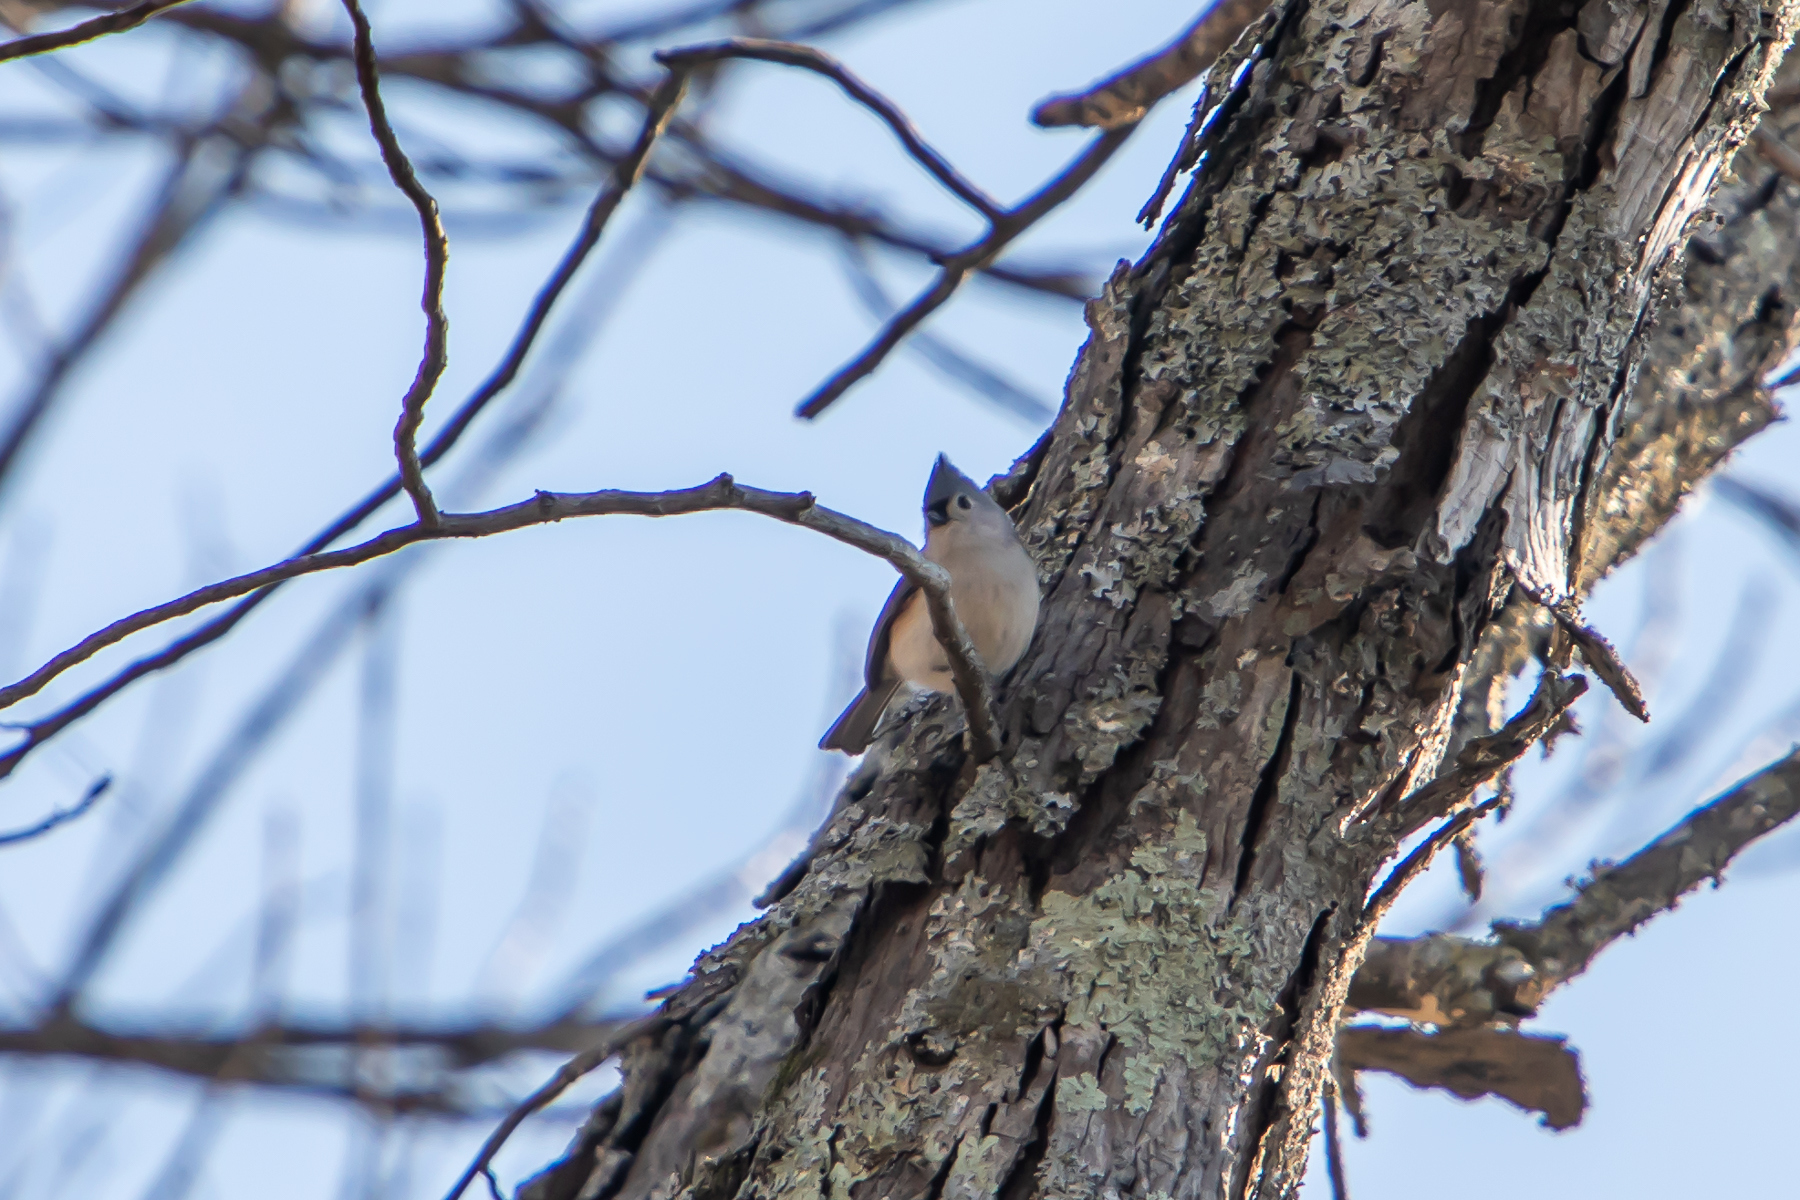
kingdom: Animalia
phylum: Chordata
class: Aves
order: Passeriformes
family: Paridae
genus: Baeolophus
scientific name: Baeolophus bicolor
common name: Tufted titmouse
